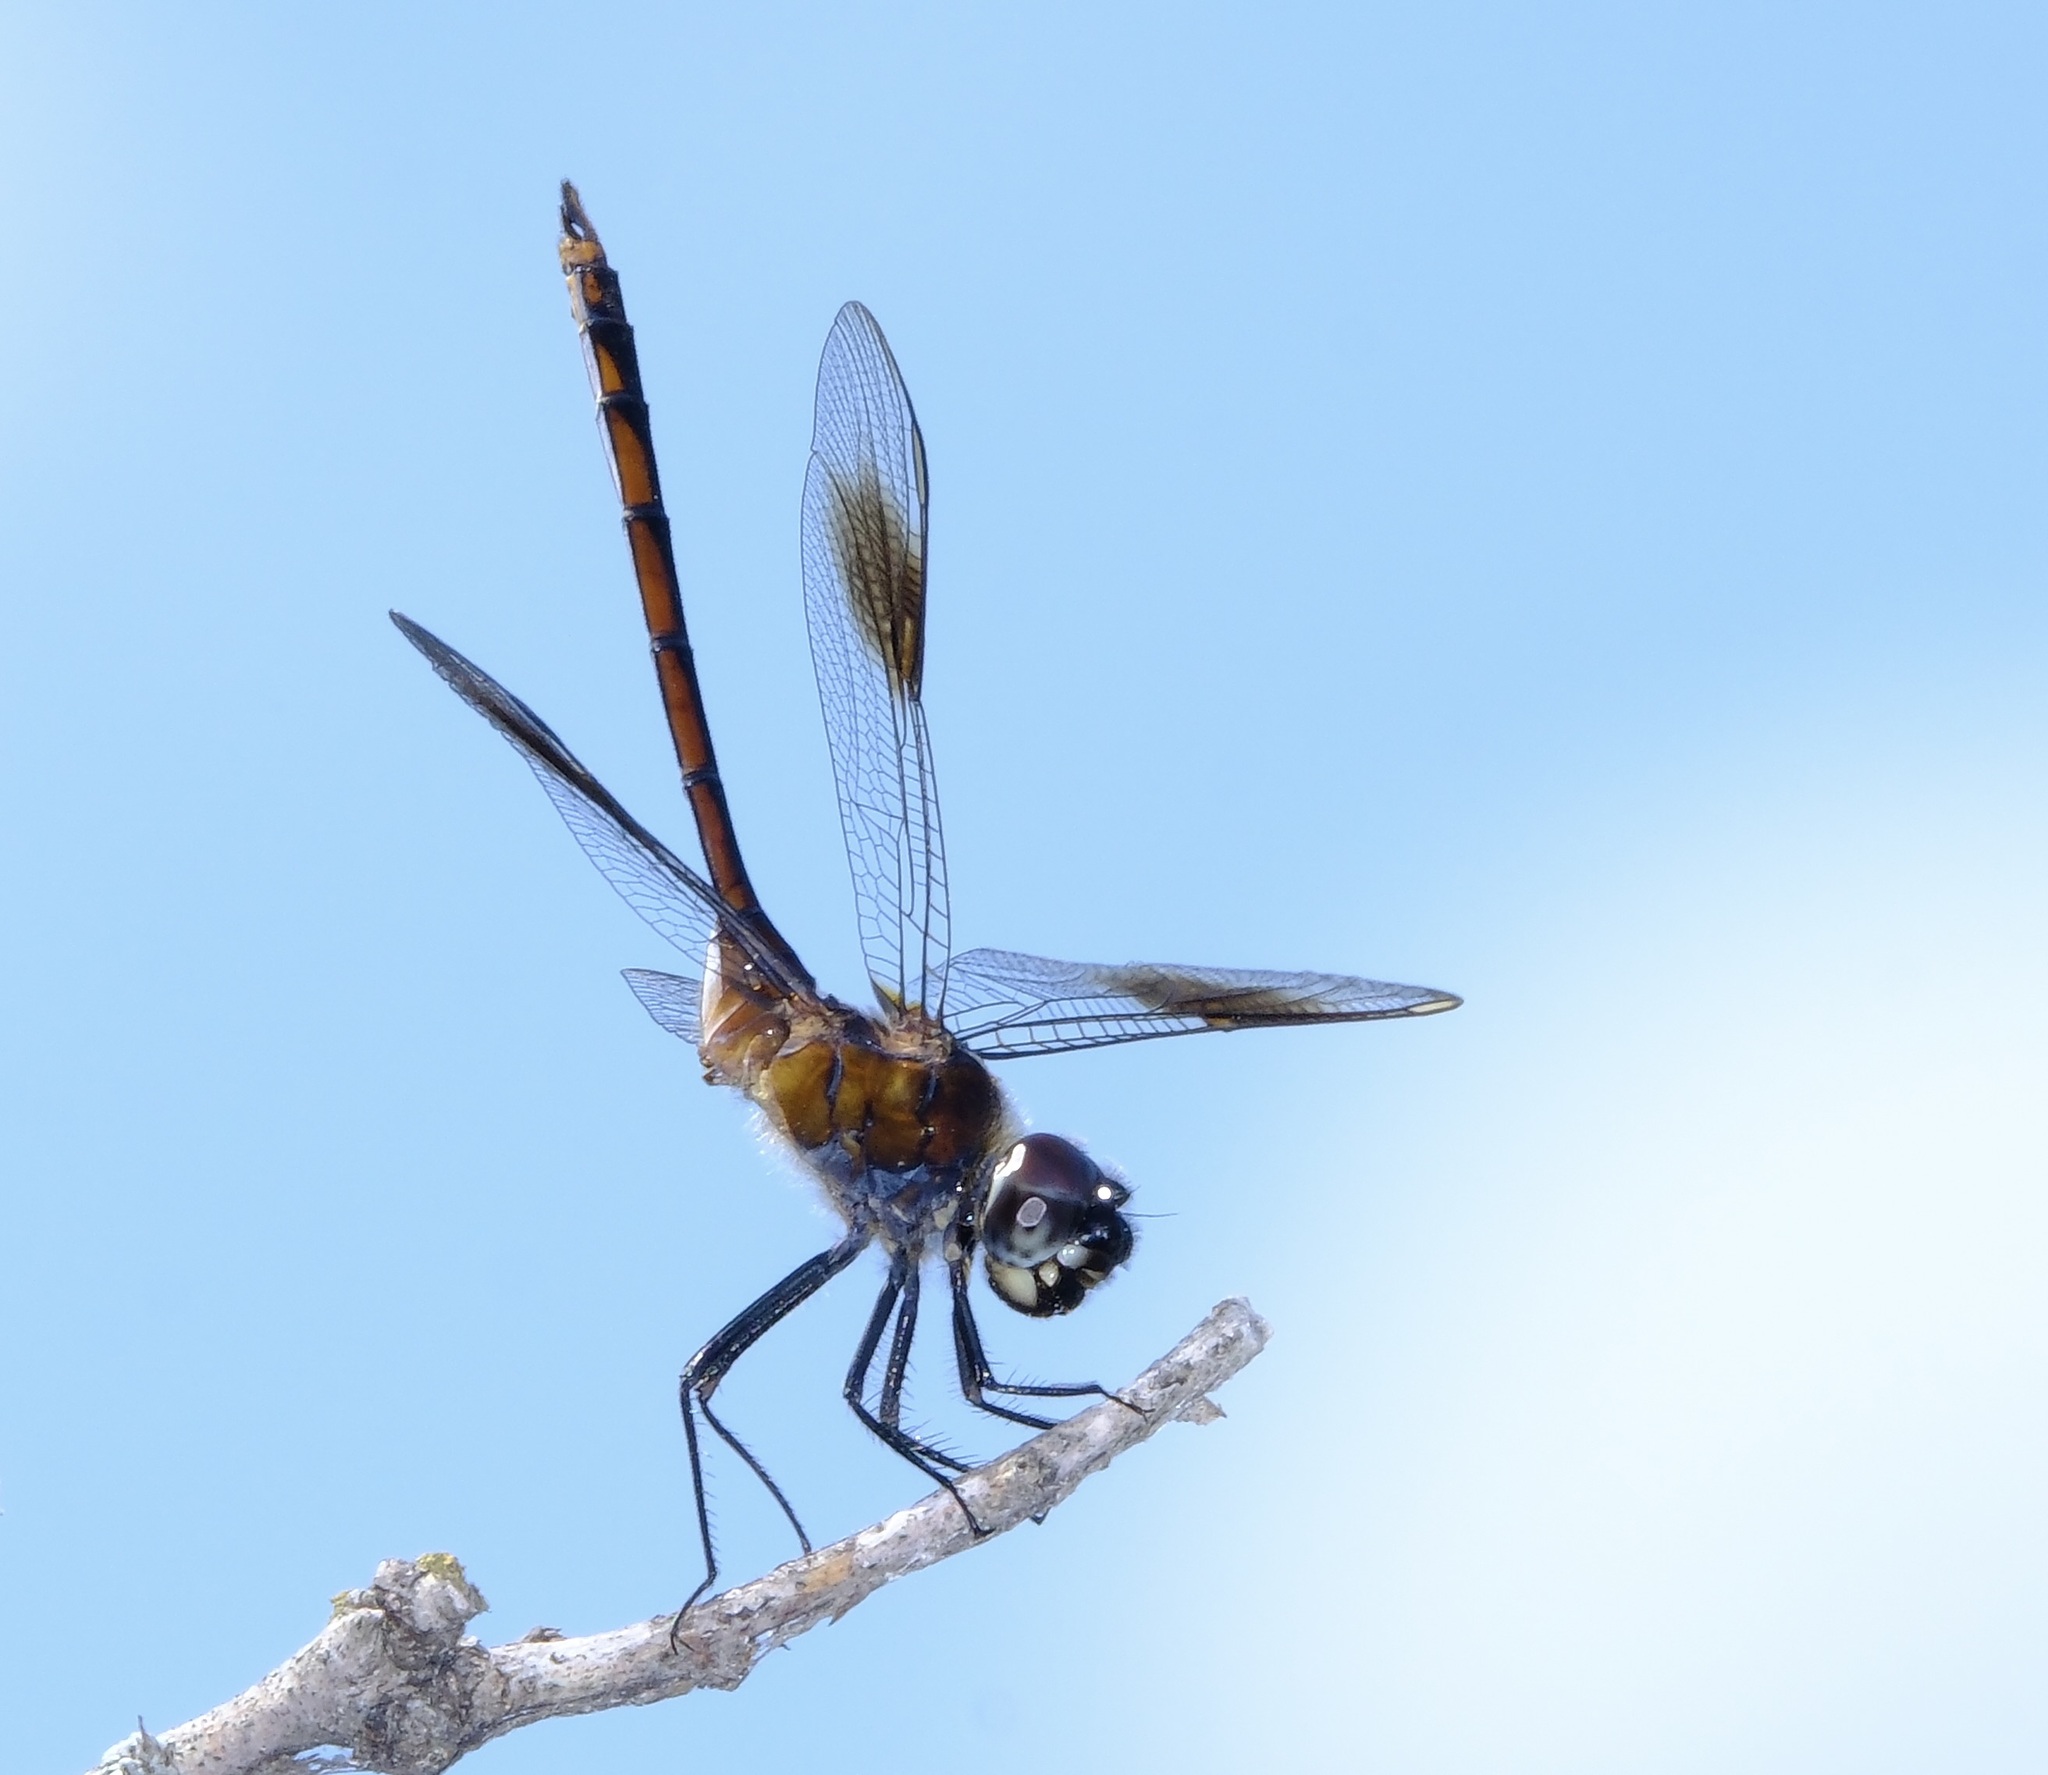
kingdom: Animalia
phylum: Arthropoda
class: Insecta
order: Odonata
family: Libellulidae
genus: Brachymesia
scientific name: Brachymesia gravida
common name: Four-spotted pennant
